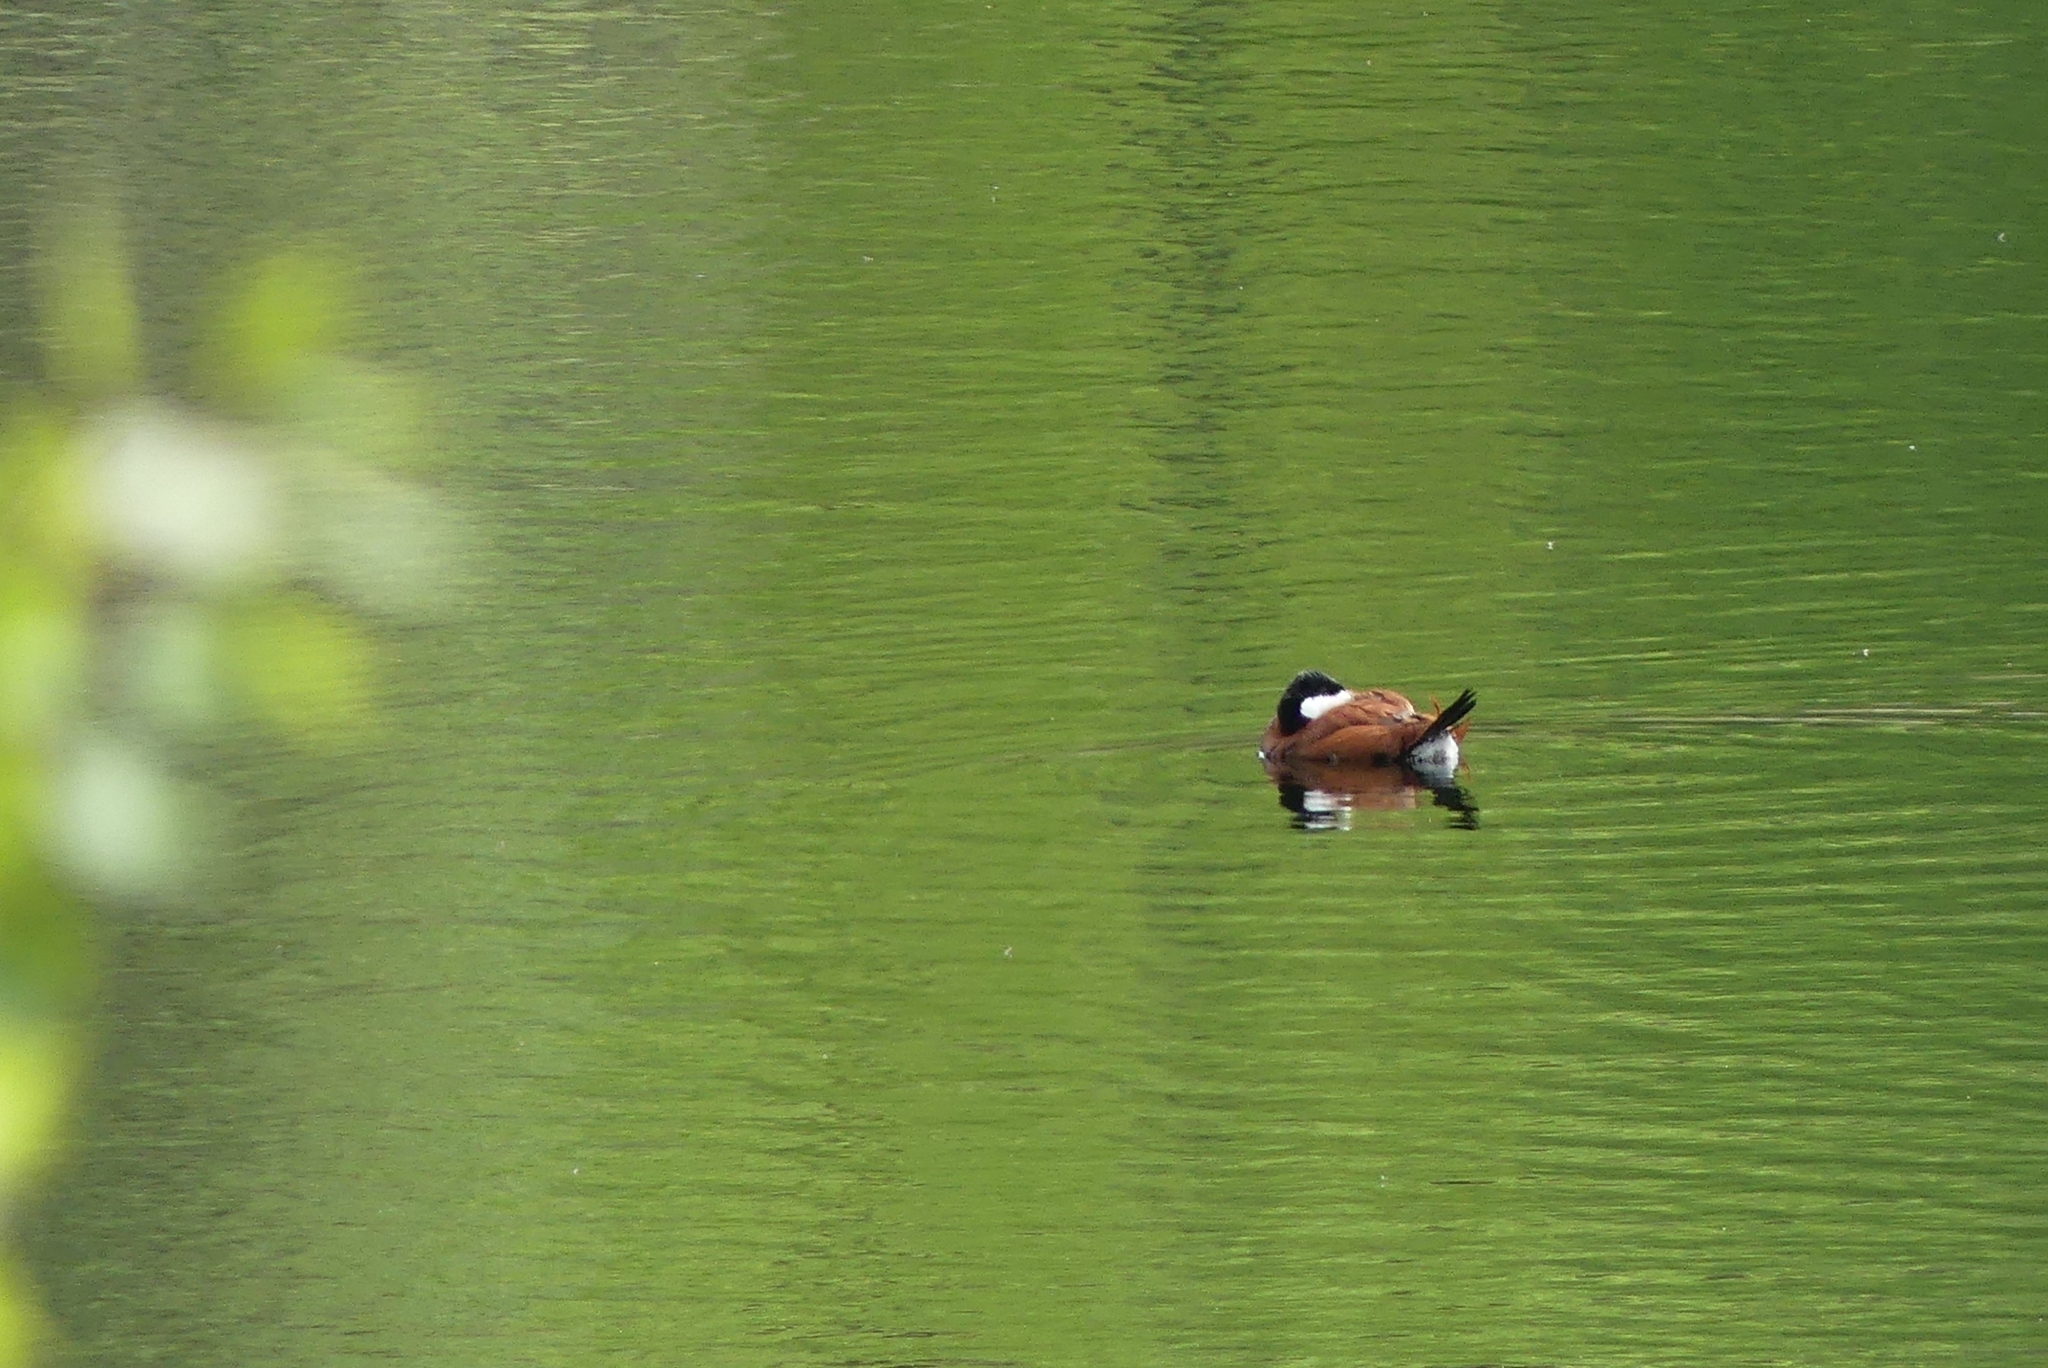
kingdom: Animalia
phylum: Chordata
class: Aves
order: Anseriformes
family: Anatidae
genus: Oxyura
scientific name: Oxyura jamaicensis
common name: Ruddy duck
